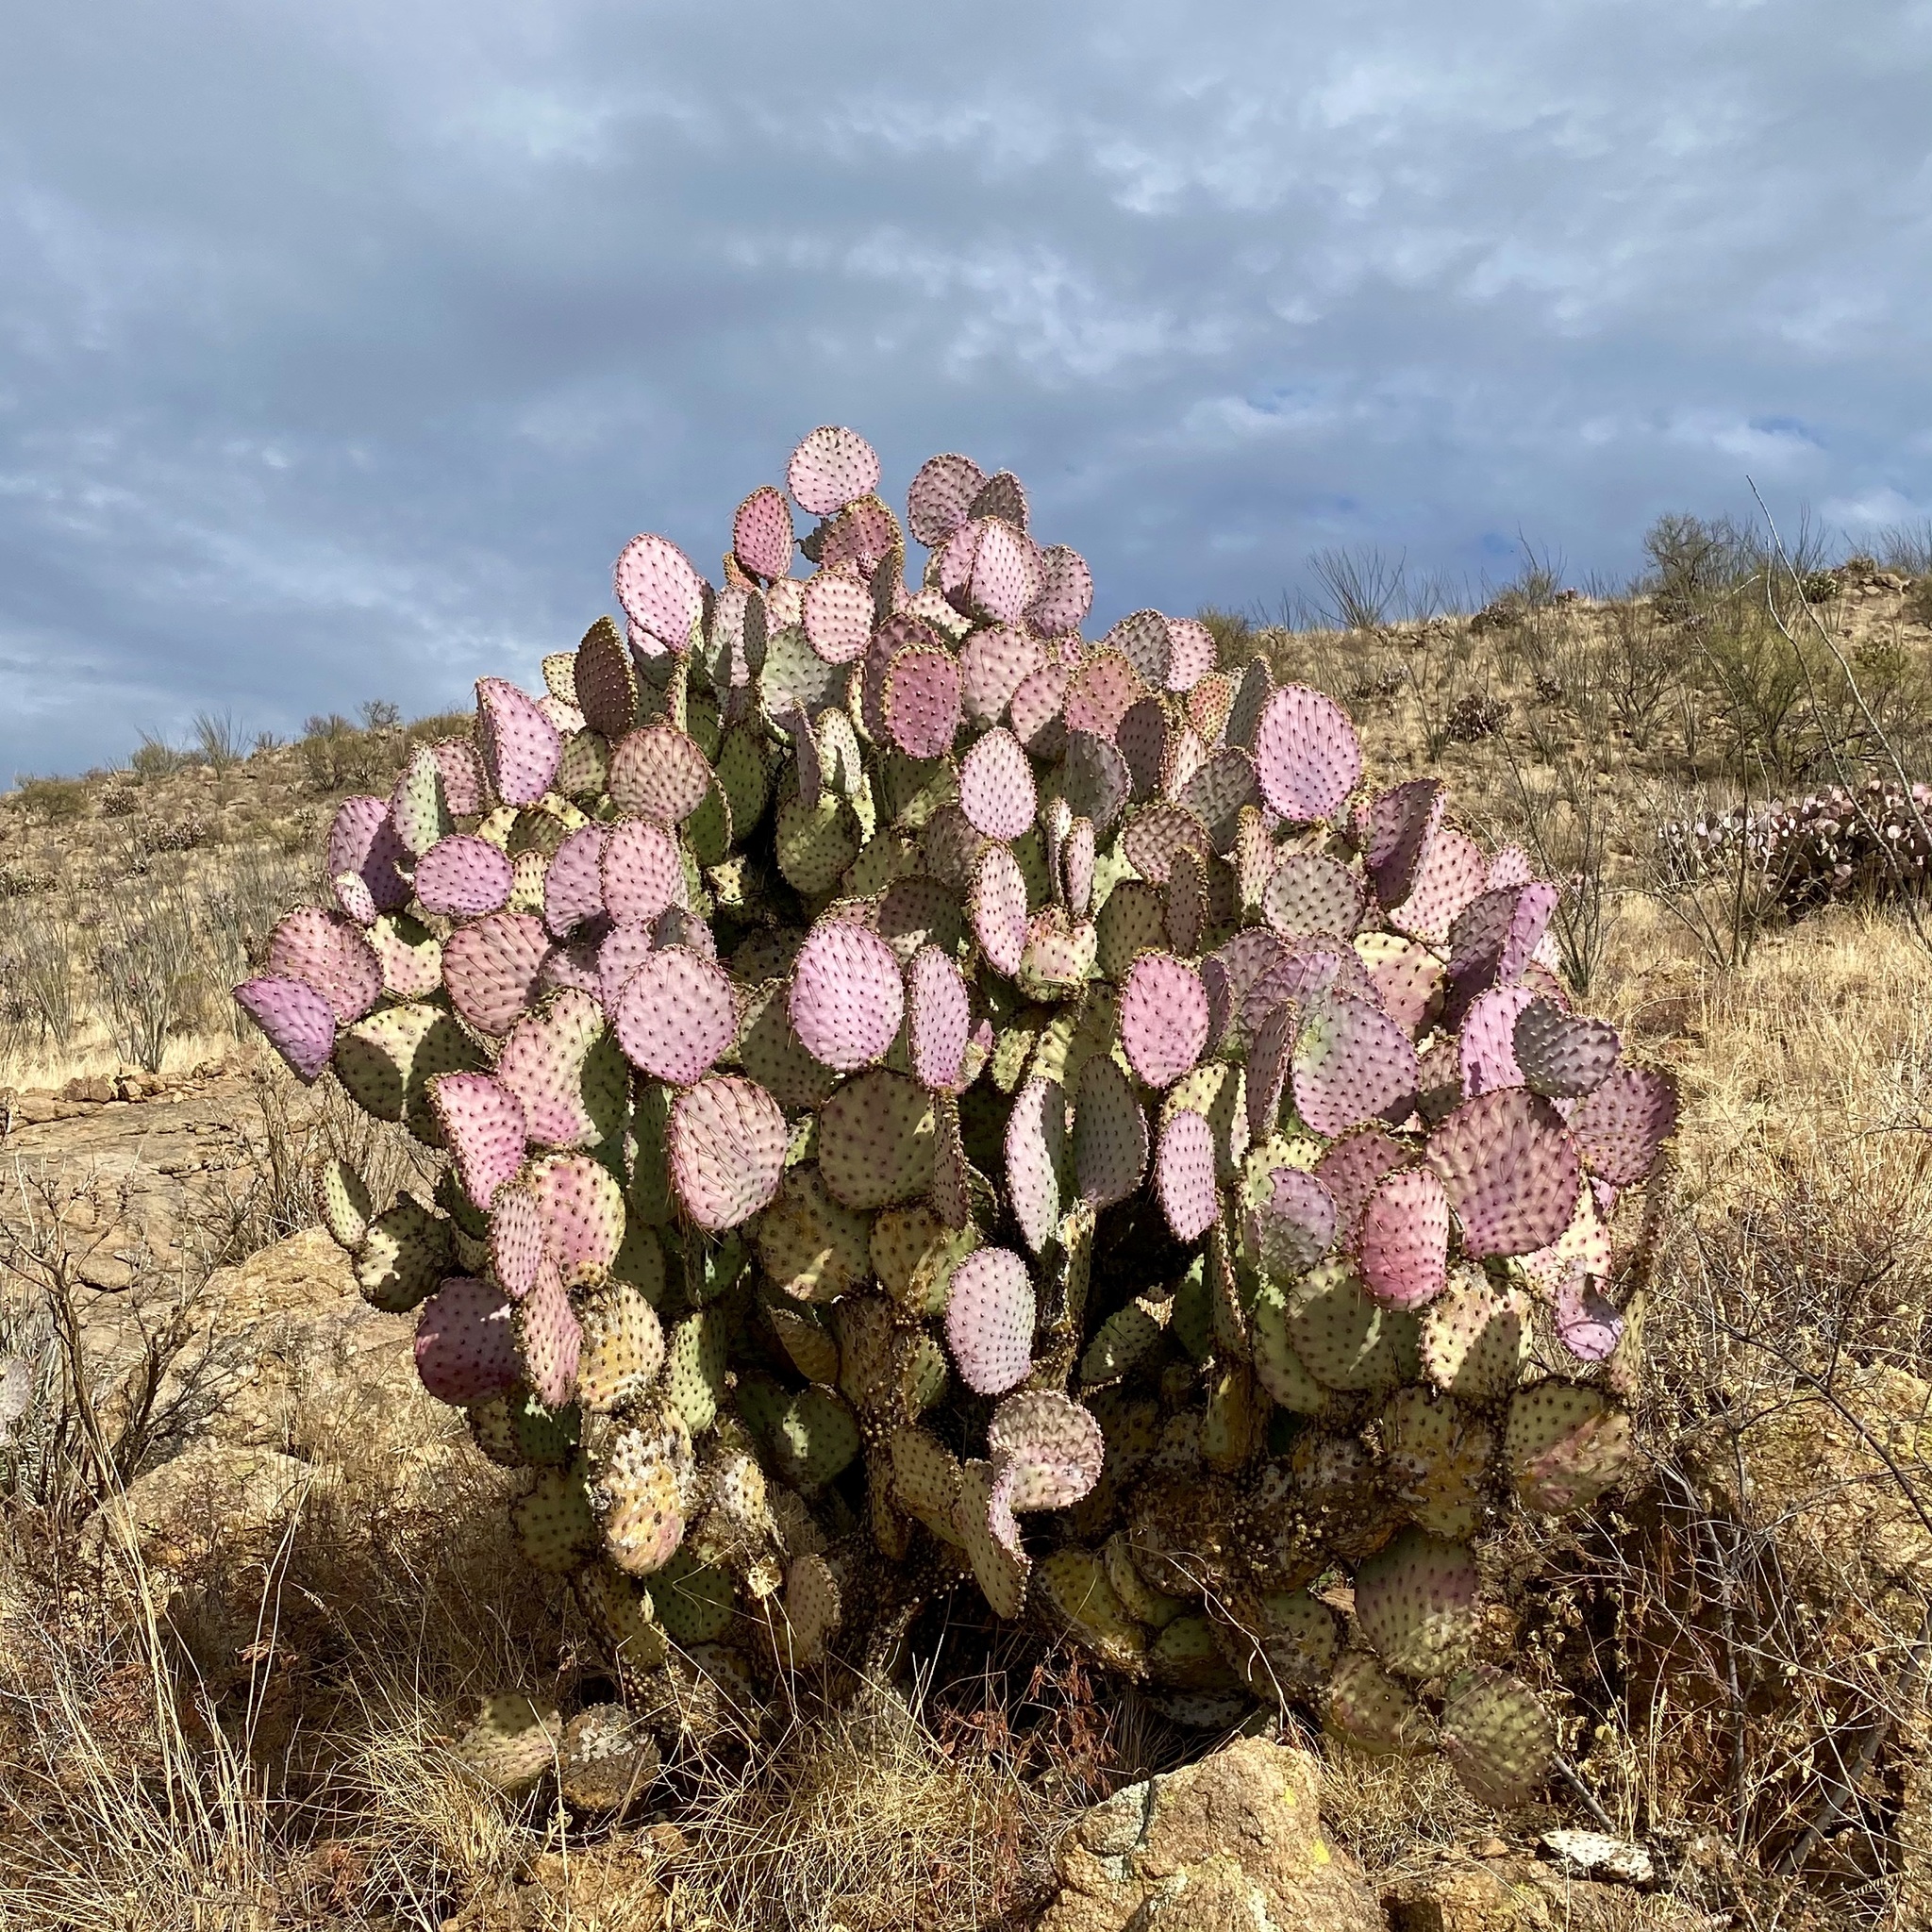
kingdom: Plantae
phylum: Tracheophyta
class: Magnoliopsida
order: Caryophyllales
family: Cactaceae
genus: Opuntia
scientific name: Opuntia gosseliniana
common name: Violet prickly-pear
